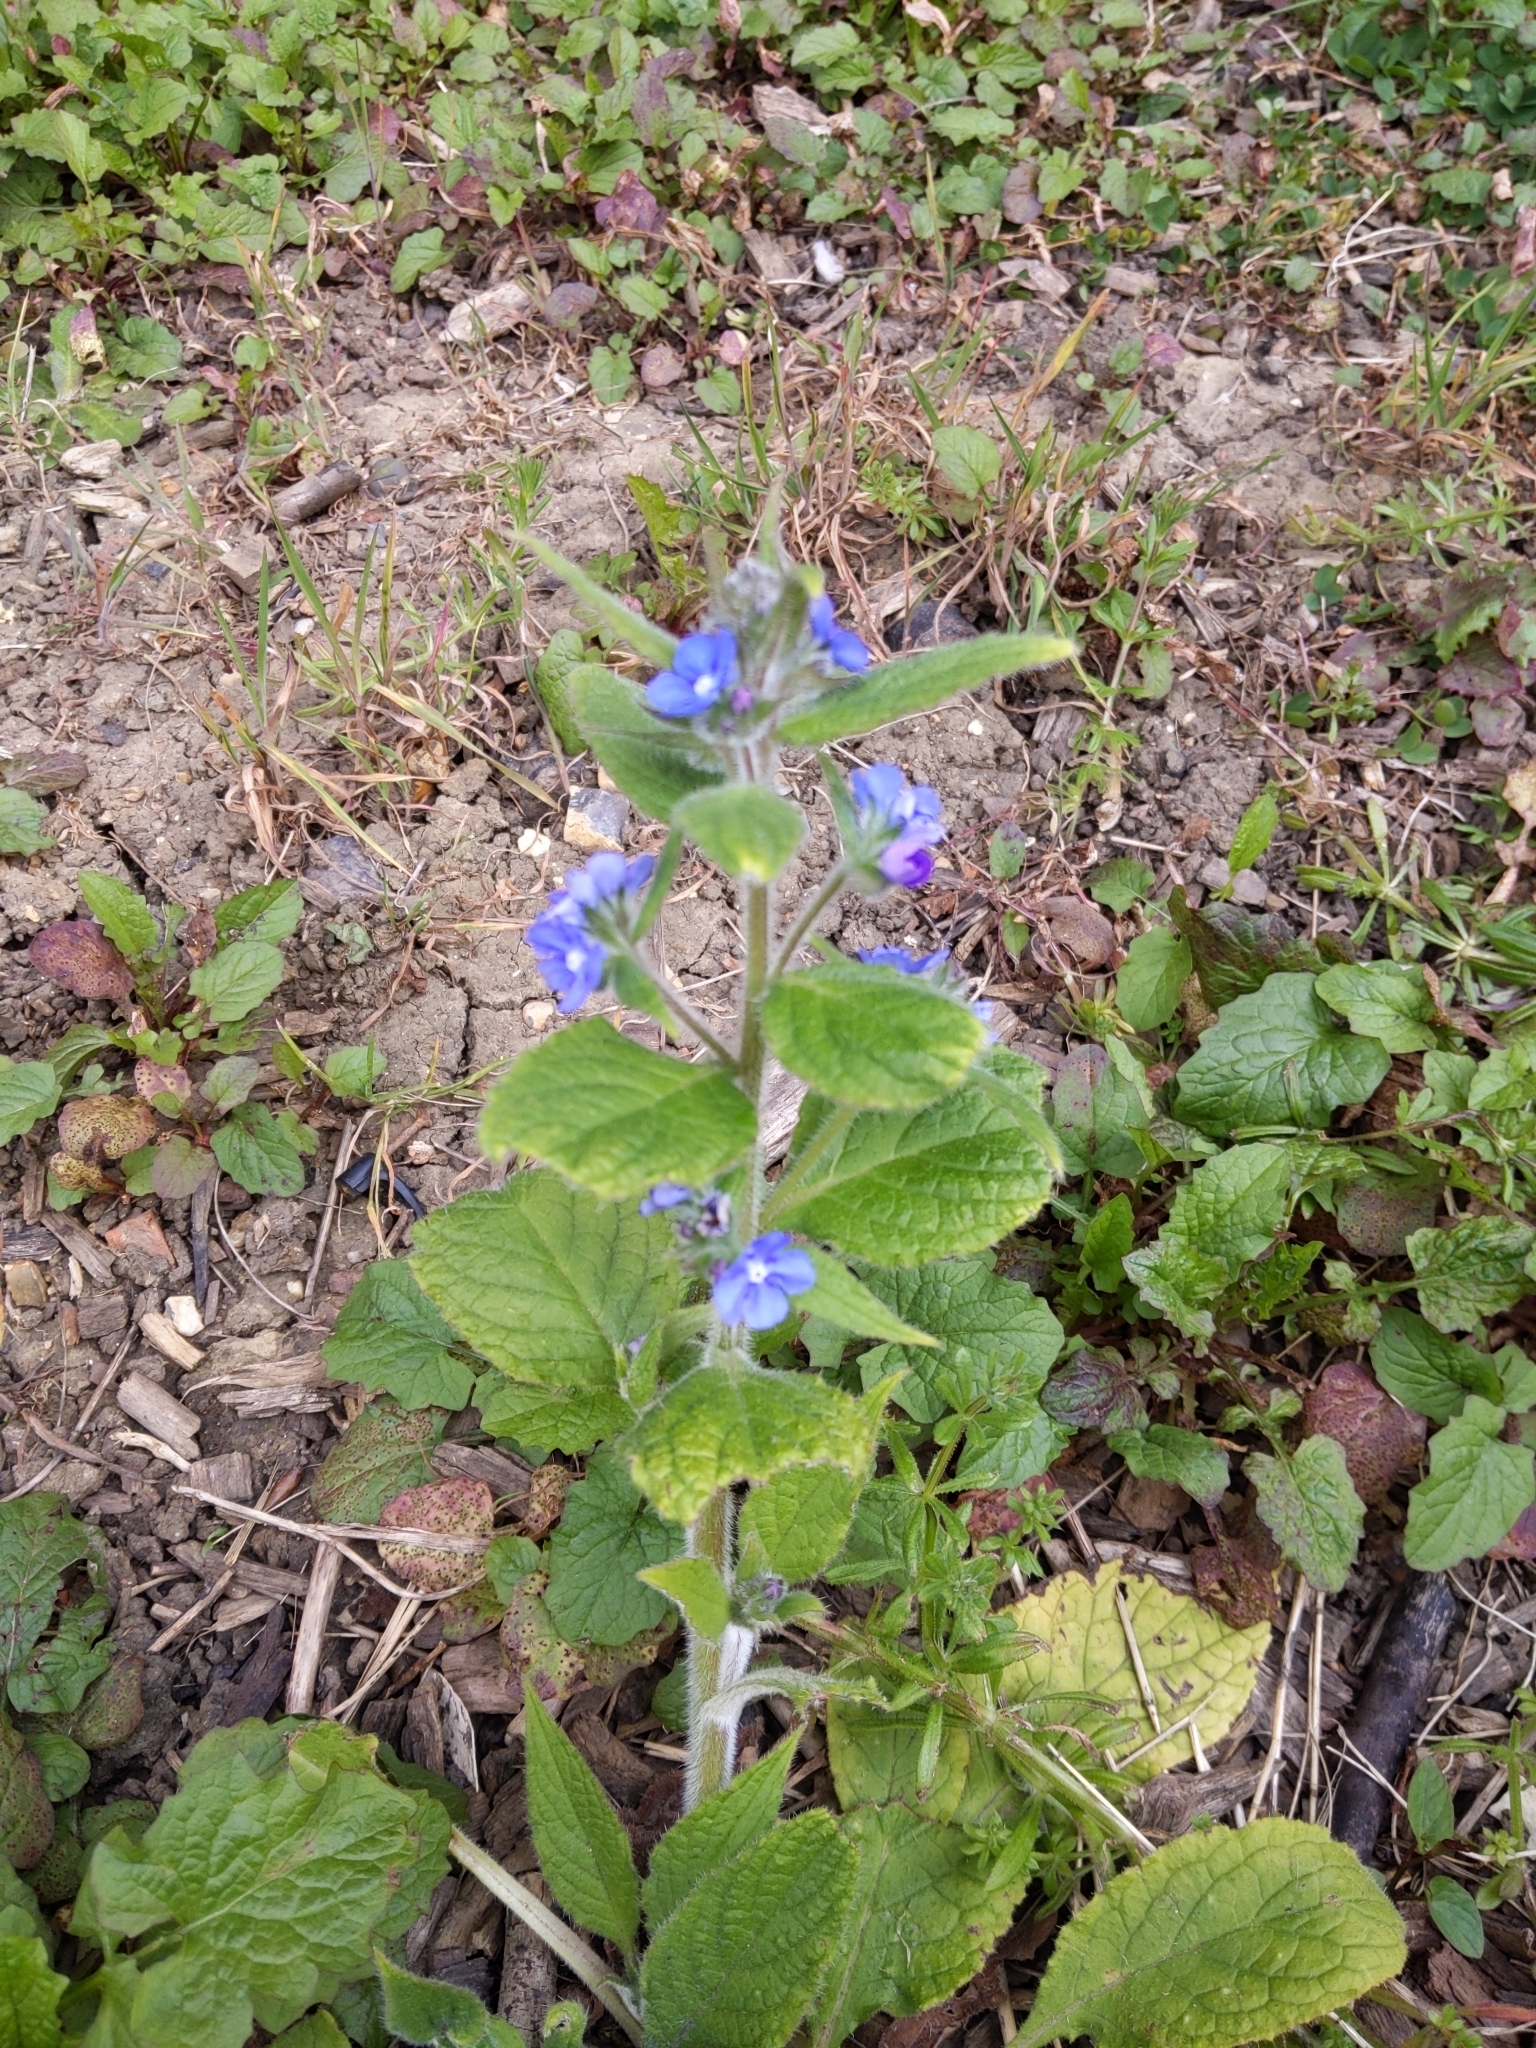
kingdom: Plantae
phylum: Tracheophyta
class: Magnoliopsida
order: Boraginales
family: Boraginaceae
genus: Pentaglottis
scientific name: Pentaglottis sempervirens
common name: Green alkanet
